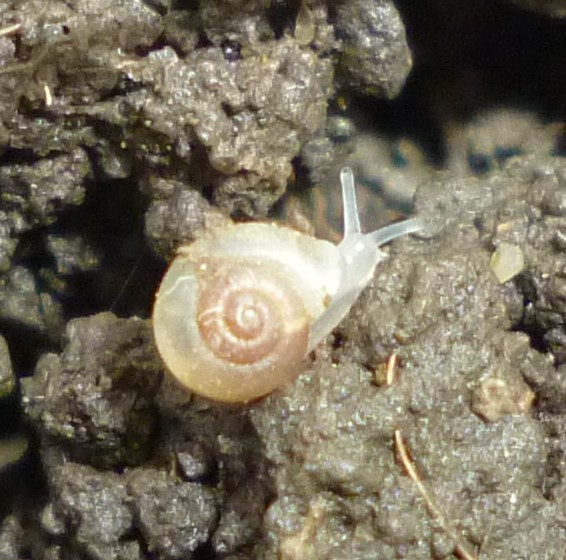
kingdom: Animalia
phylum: Mollusca
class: Gastropoda
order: Stylommatophora
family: Valloniidae
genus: Vallonia
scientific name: Vallonia excentrica
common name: Eccentric grass snail
